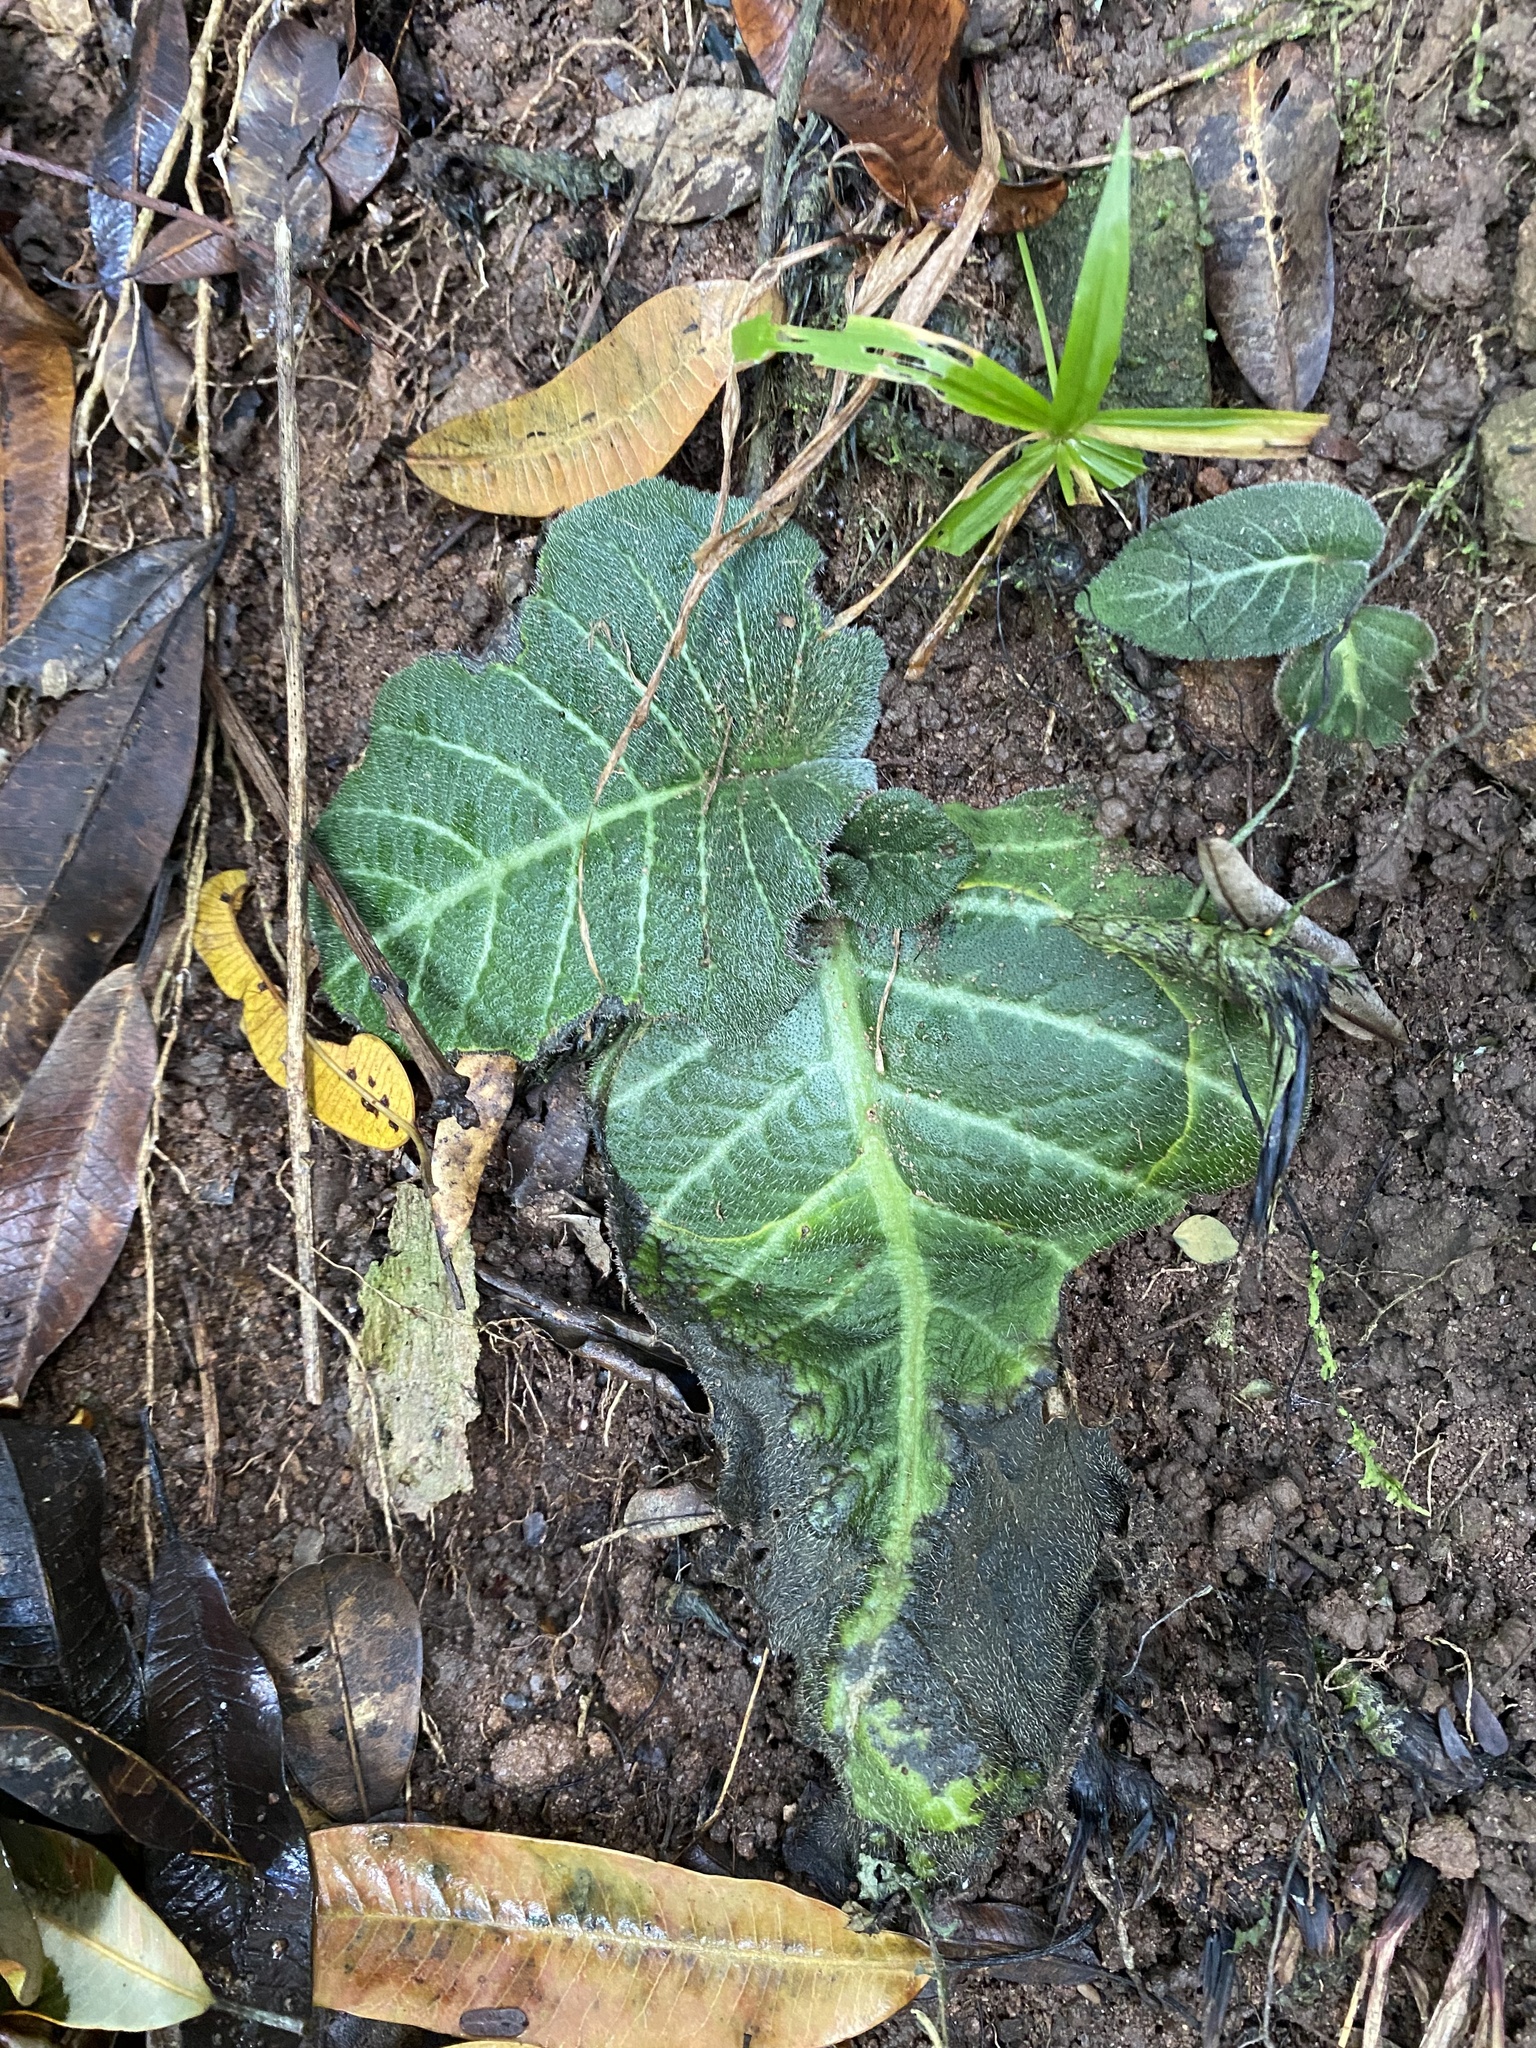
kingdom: Plantae
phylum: Tracheophyta
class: Magnoliopsida
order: Lamiales
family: Gesneriaceae
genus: Streptocarpus
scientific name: Streptocarpus prolixus
